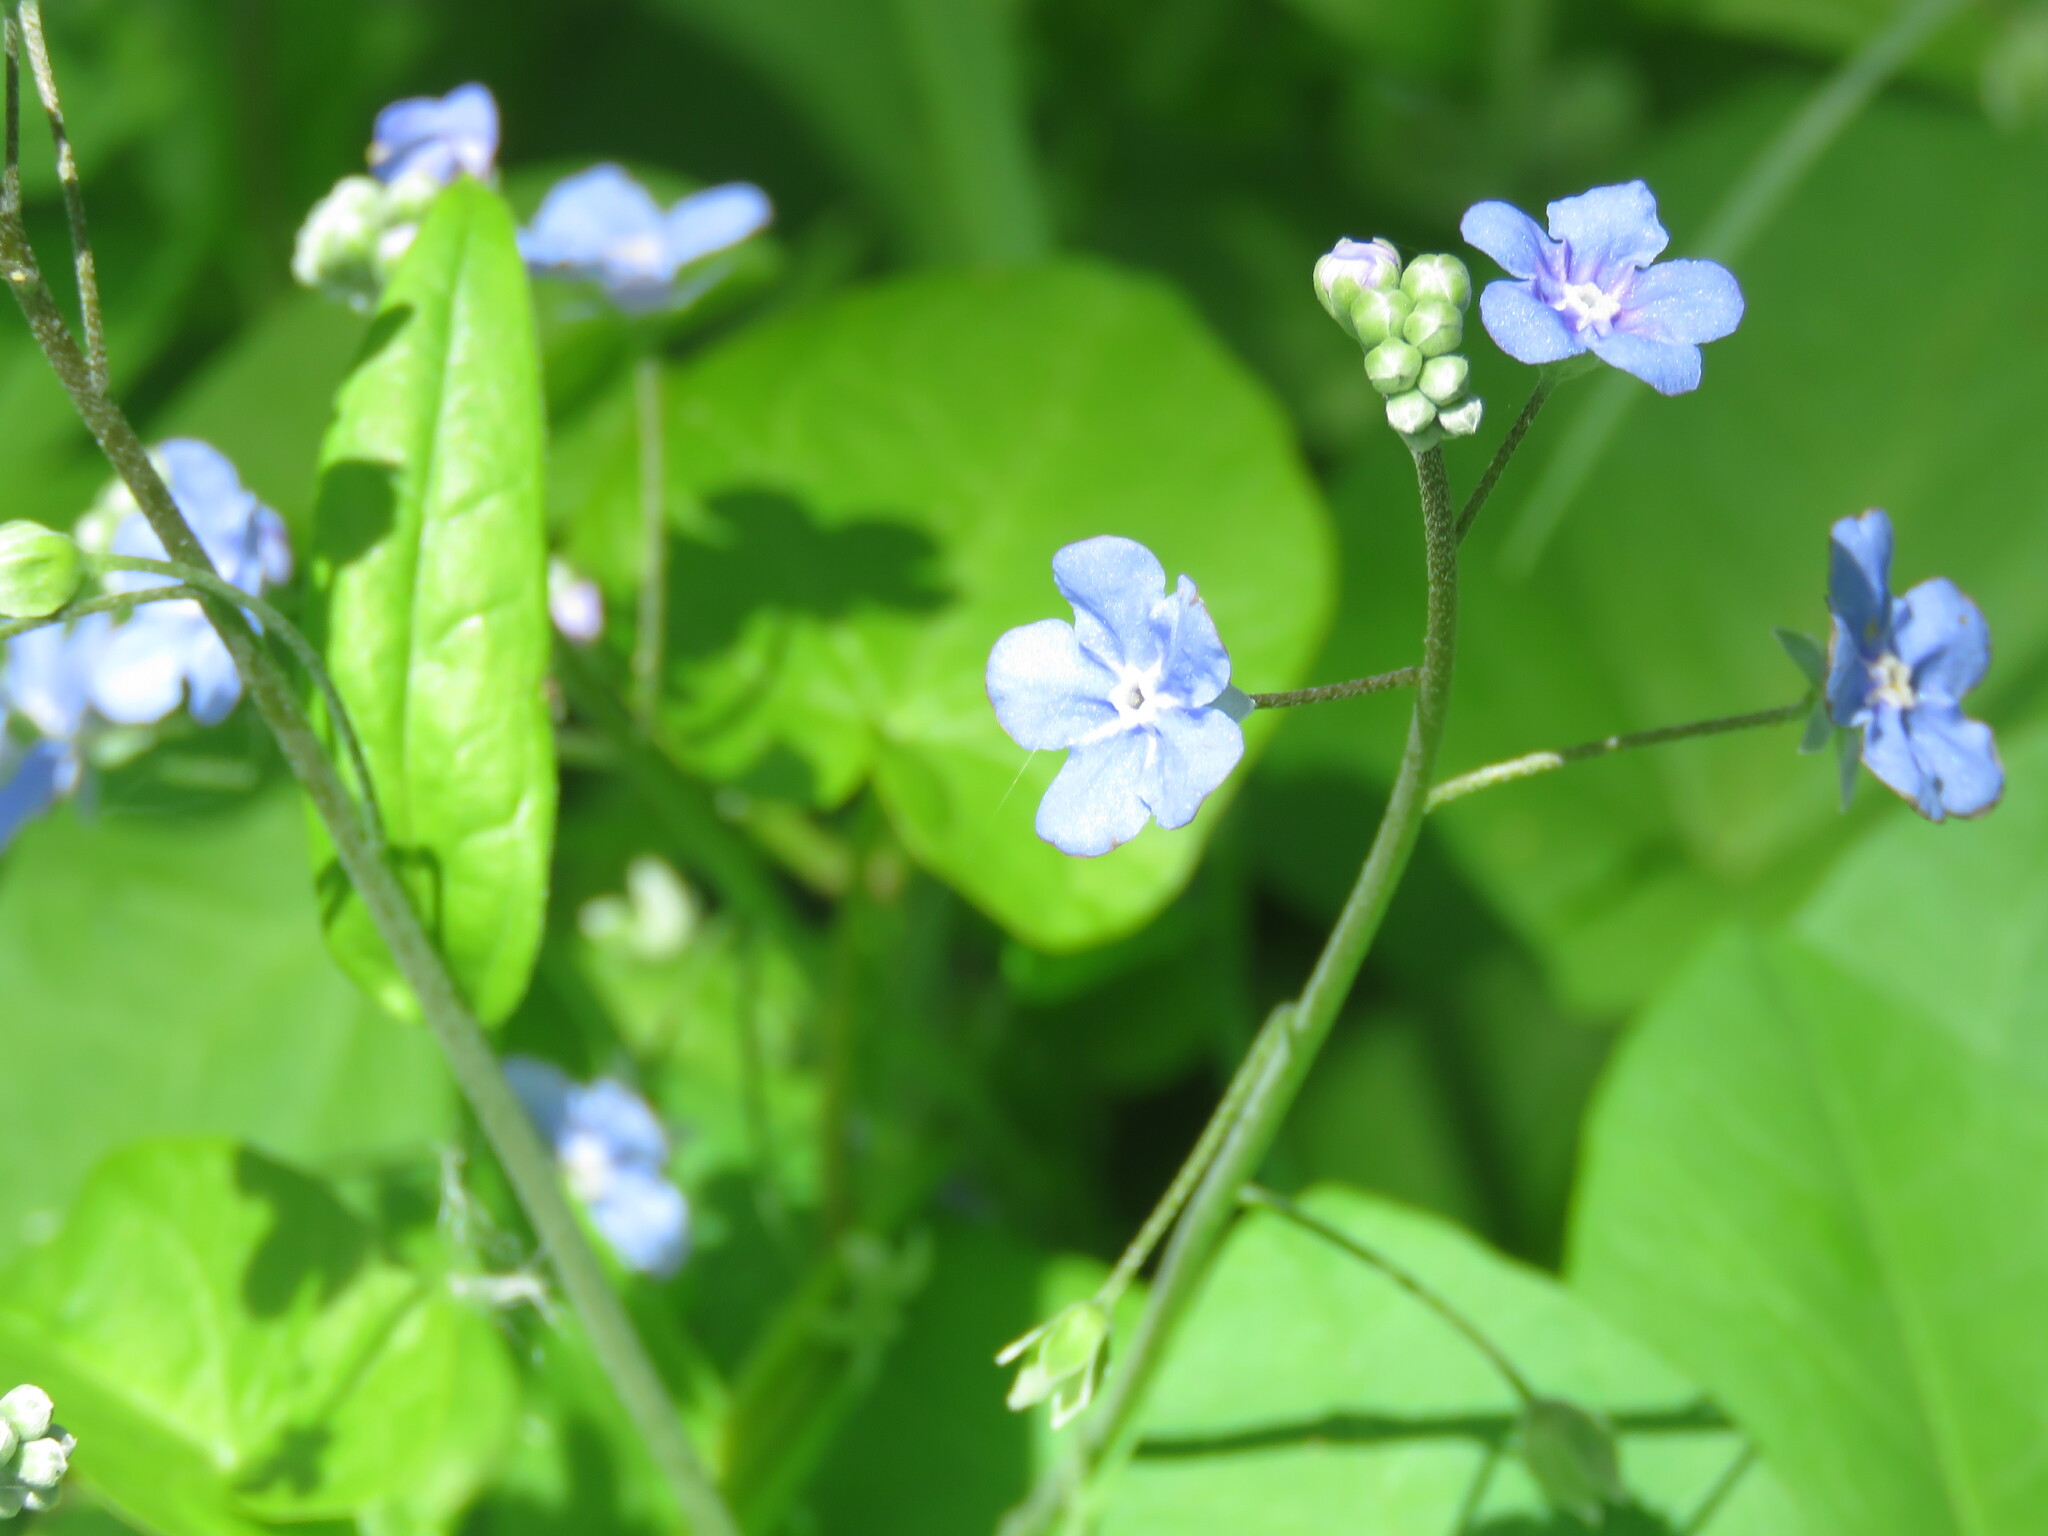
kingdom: Plantae
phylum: Tracheophyta
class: Magnoliopsida
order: Boraginales
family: Boraginaceae
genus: Omphalodes
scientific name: Omphalodes nitida
